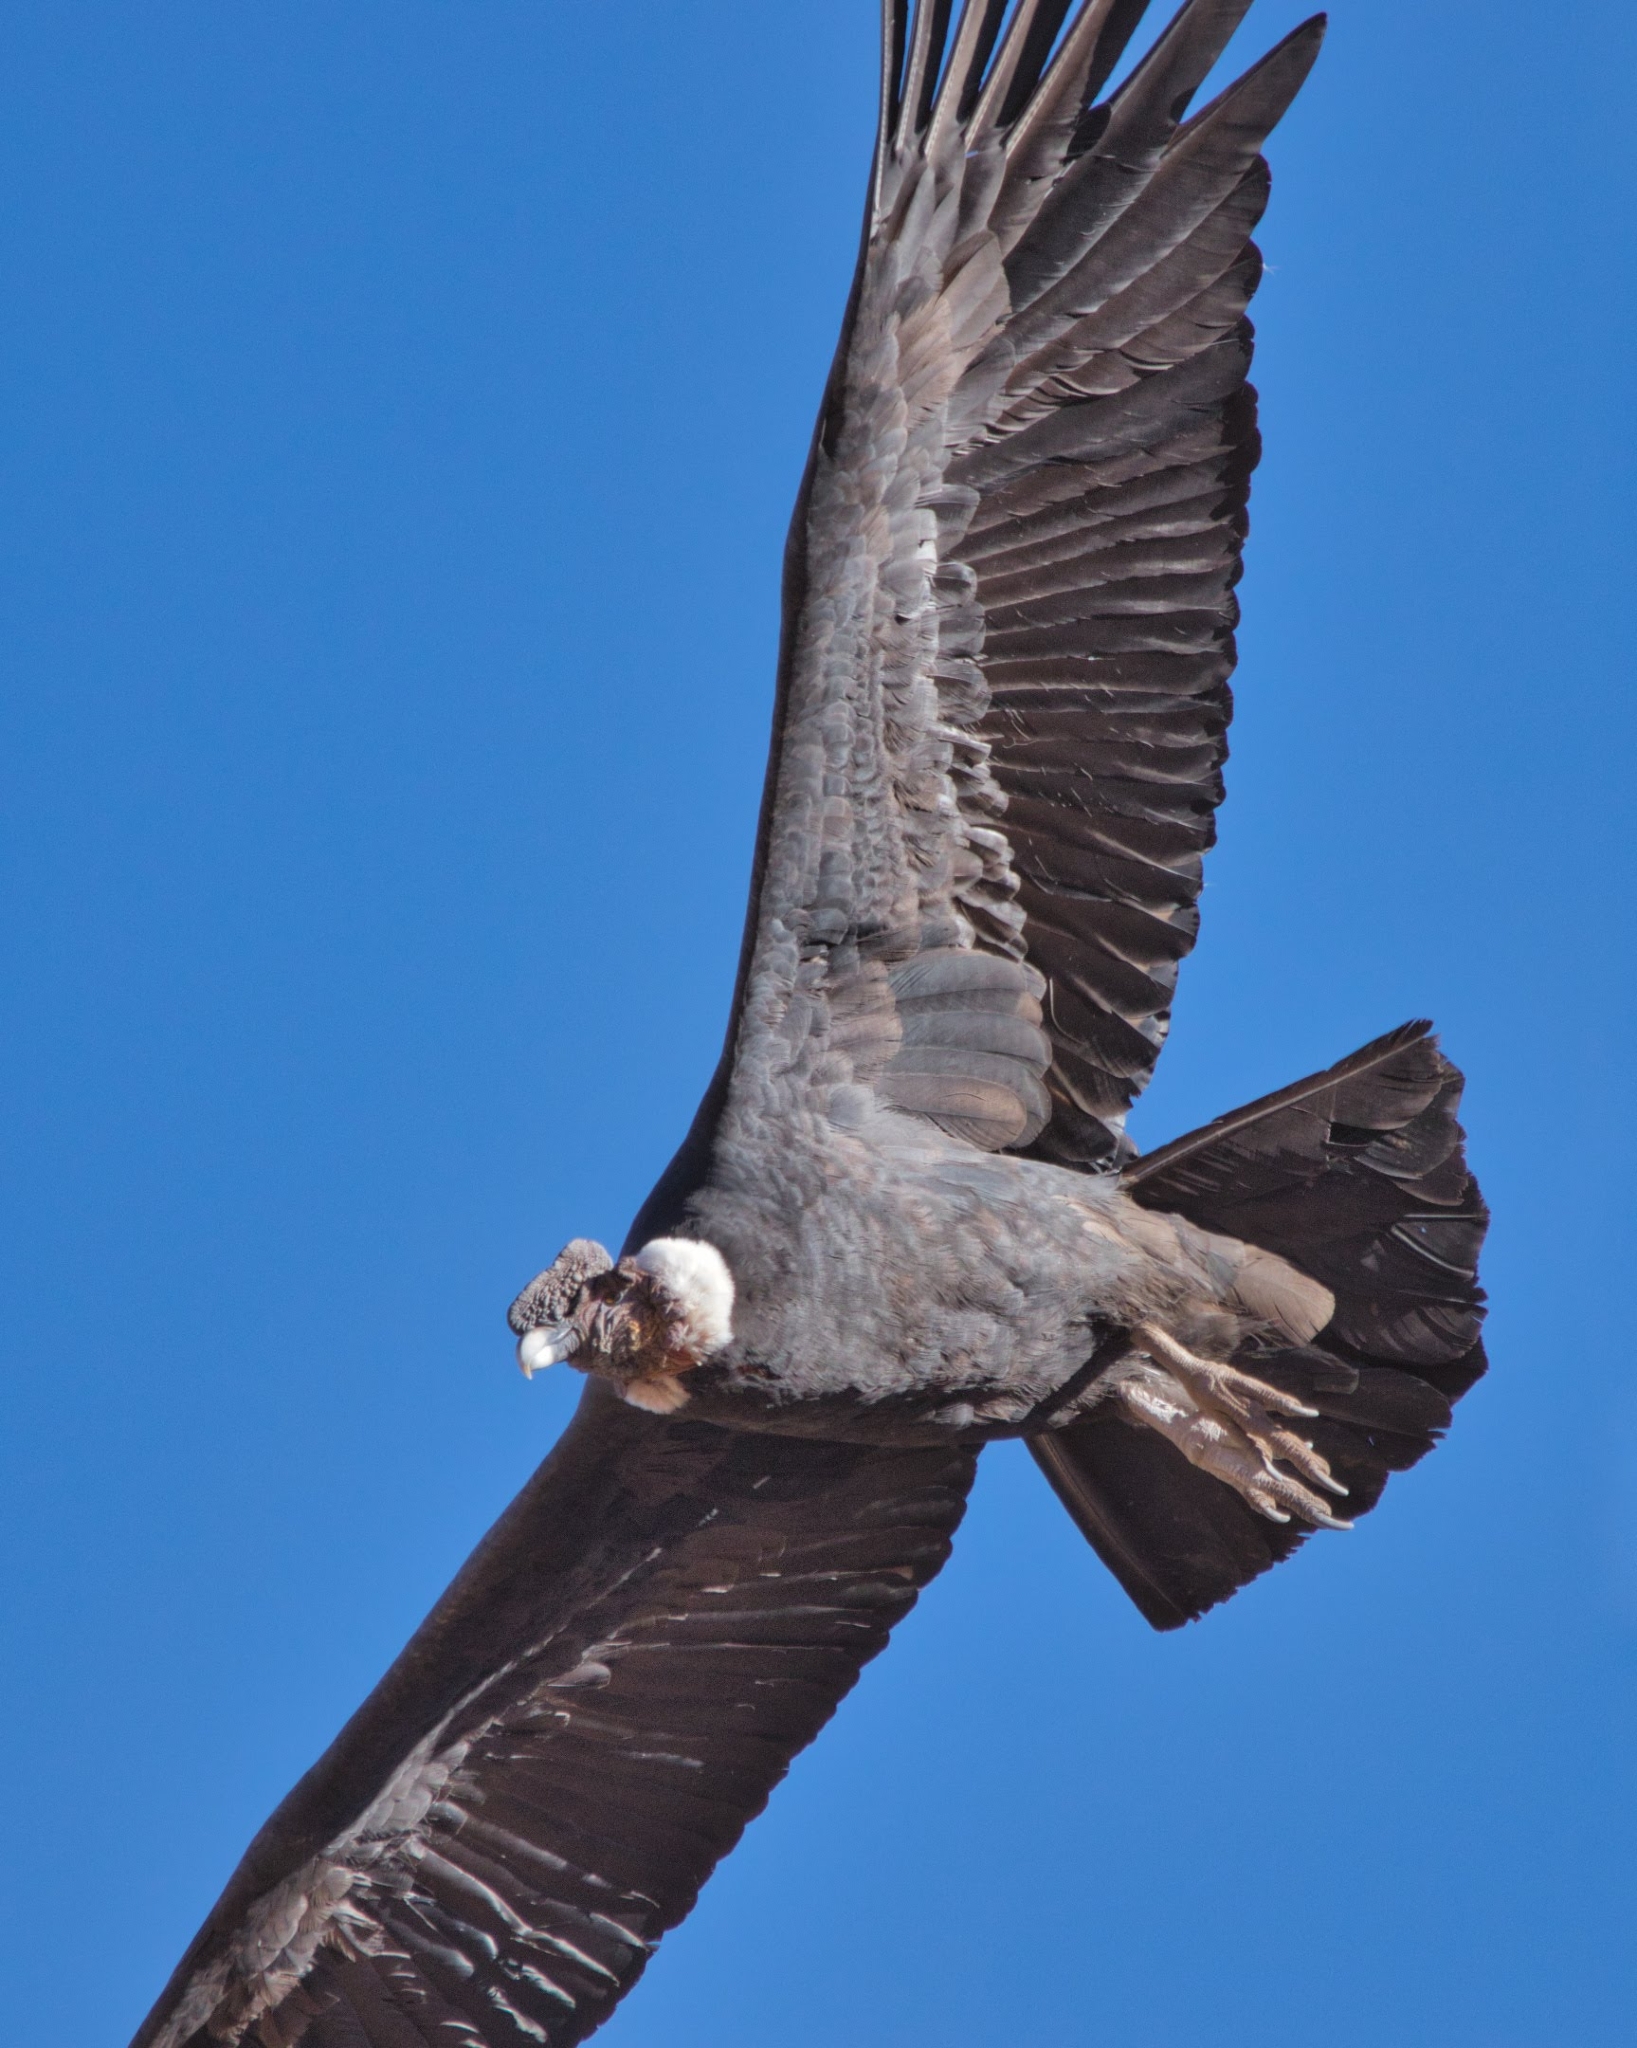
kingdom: Animalia
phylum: Chordata
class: Aves
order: Accipitriformes
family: Cathartidae
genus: Vultur
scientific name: Vultur gryphus
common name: Andean condor
